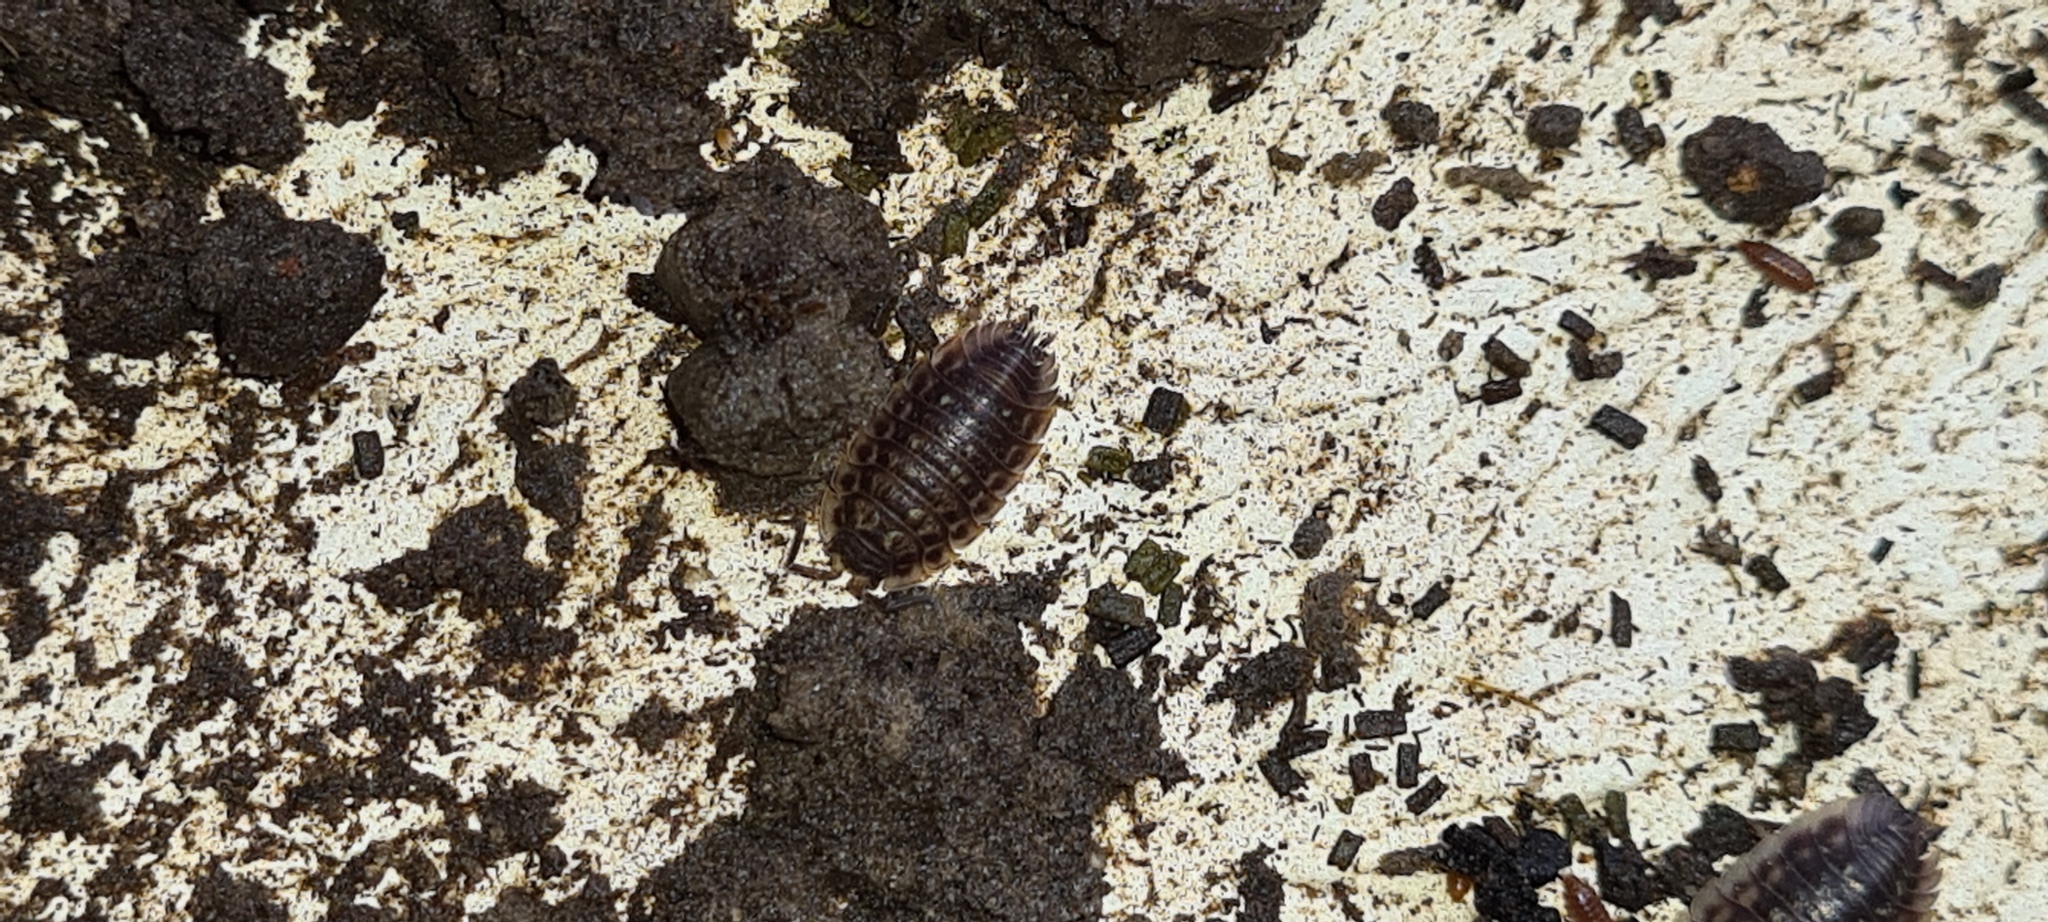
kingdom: Animalia
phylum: Arthropoda
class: Malacostraca
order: Isopoda
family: Porcellionidae
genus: Porcellio
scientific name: Porcellio scaber
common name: Common rough woodlouse
